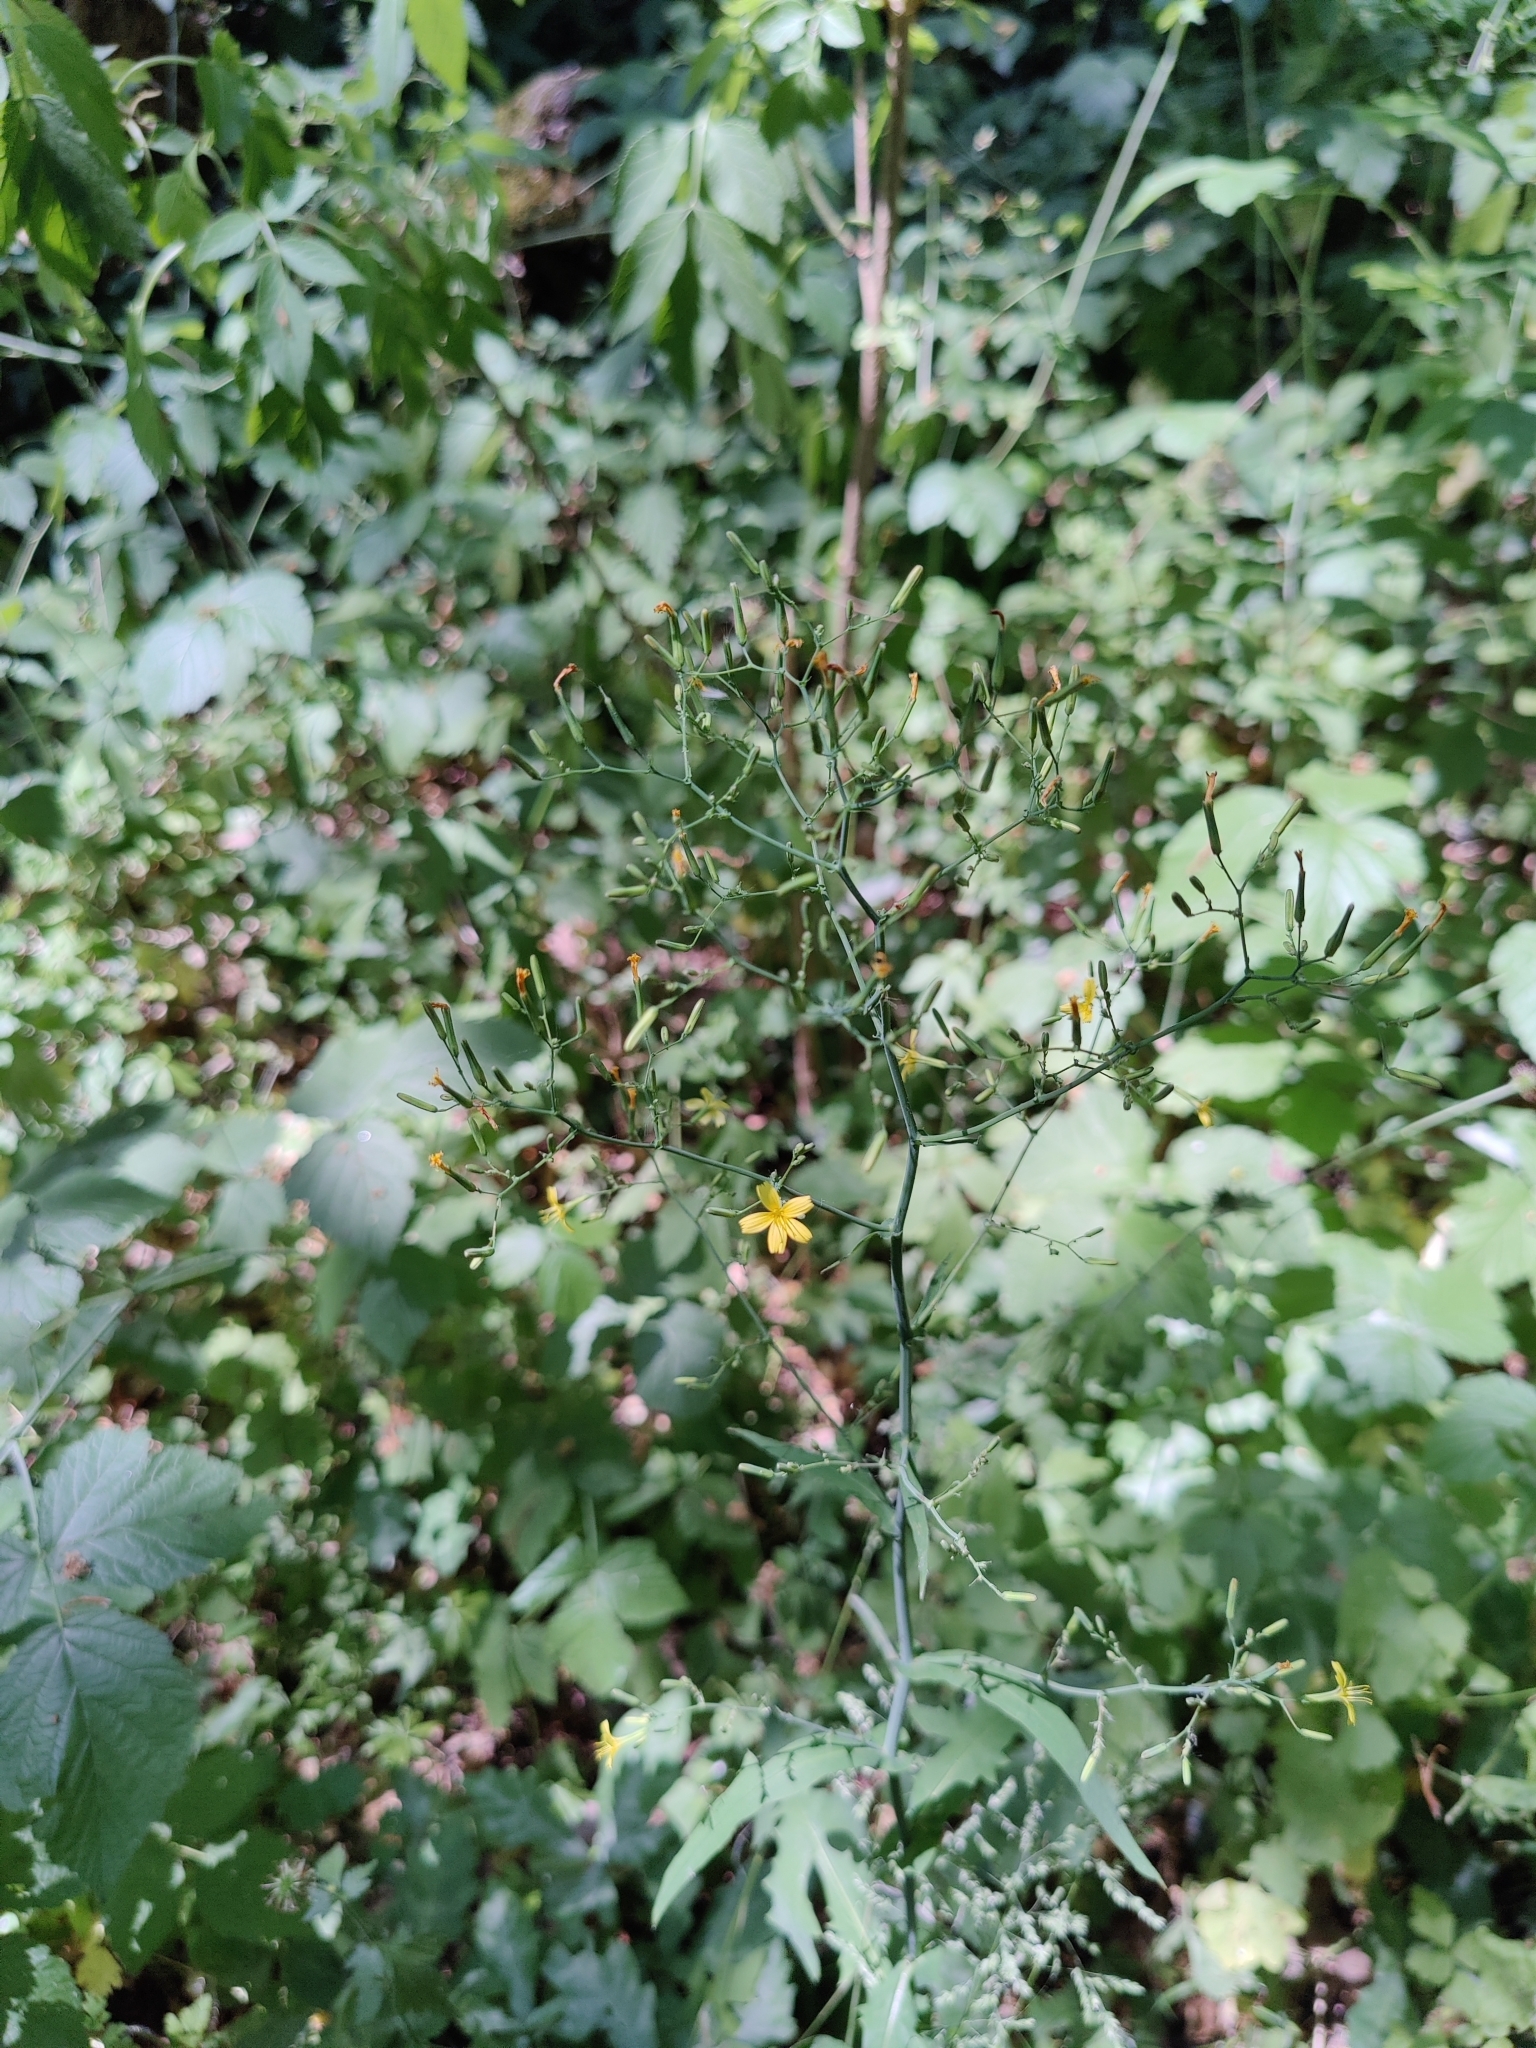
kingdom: Plantae
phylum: Tracheophyta
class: Magnoliopsida
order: Asterales
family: Asteraceae
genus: Mycelis
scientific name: Mycelis muralis
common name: Wall lettuce
